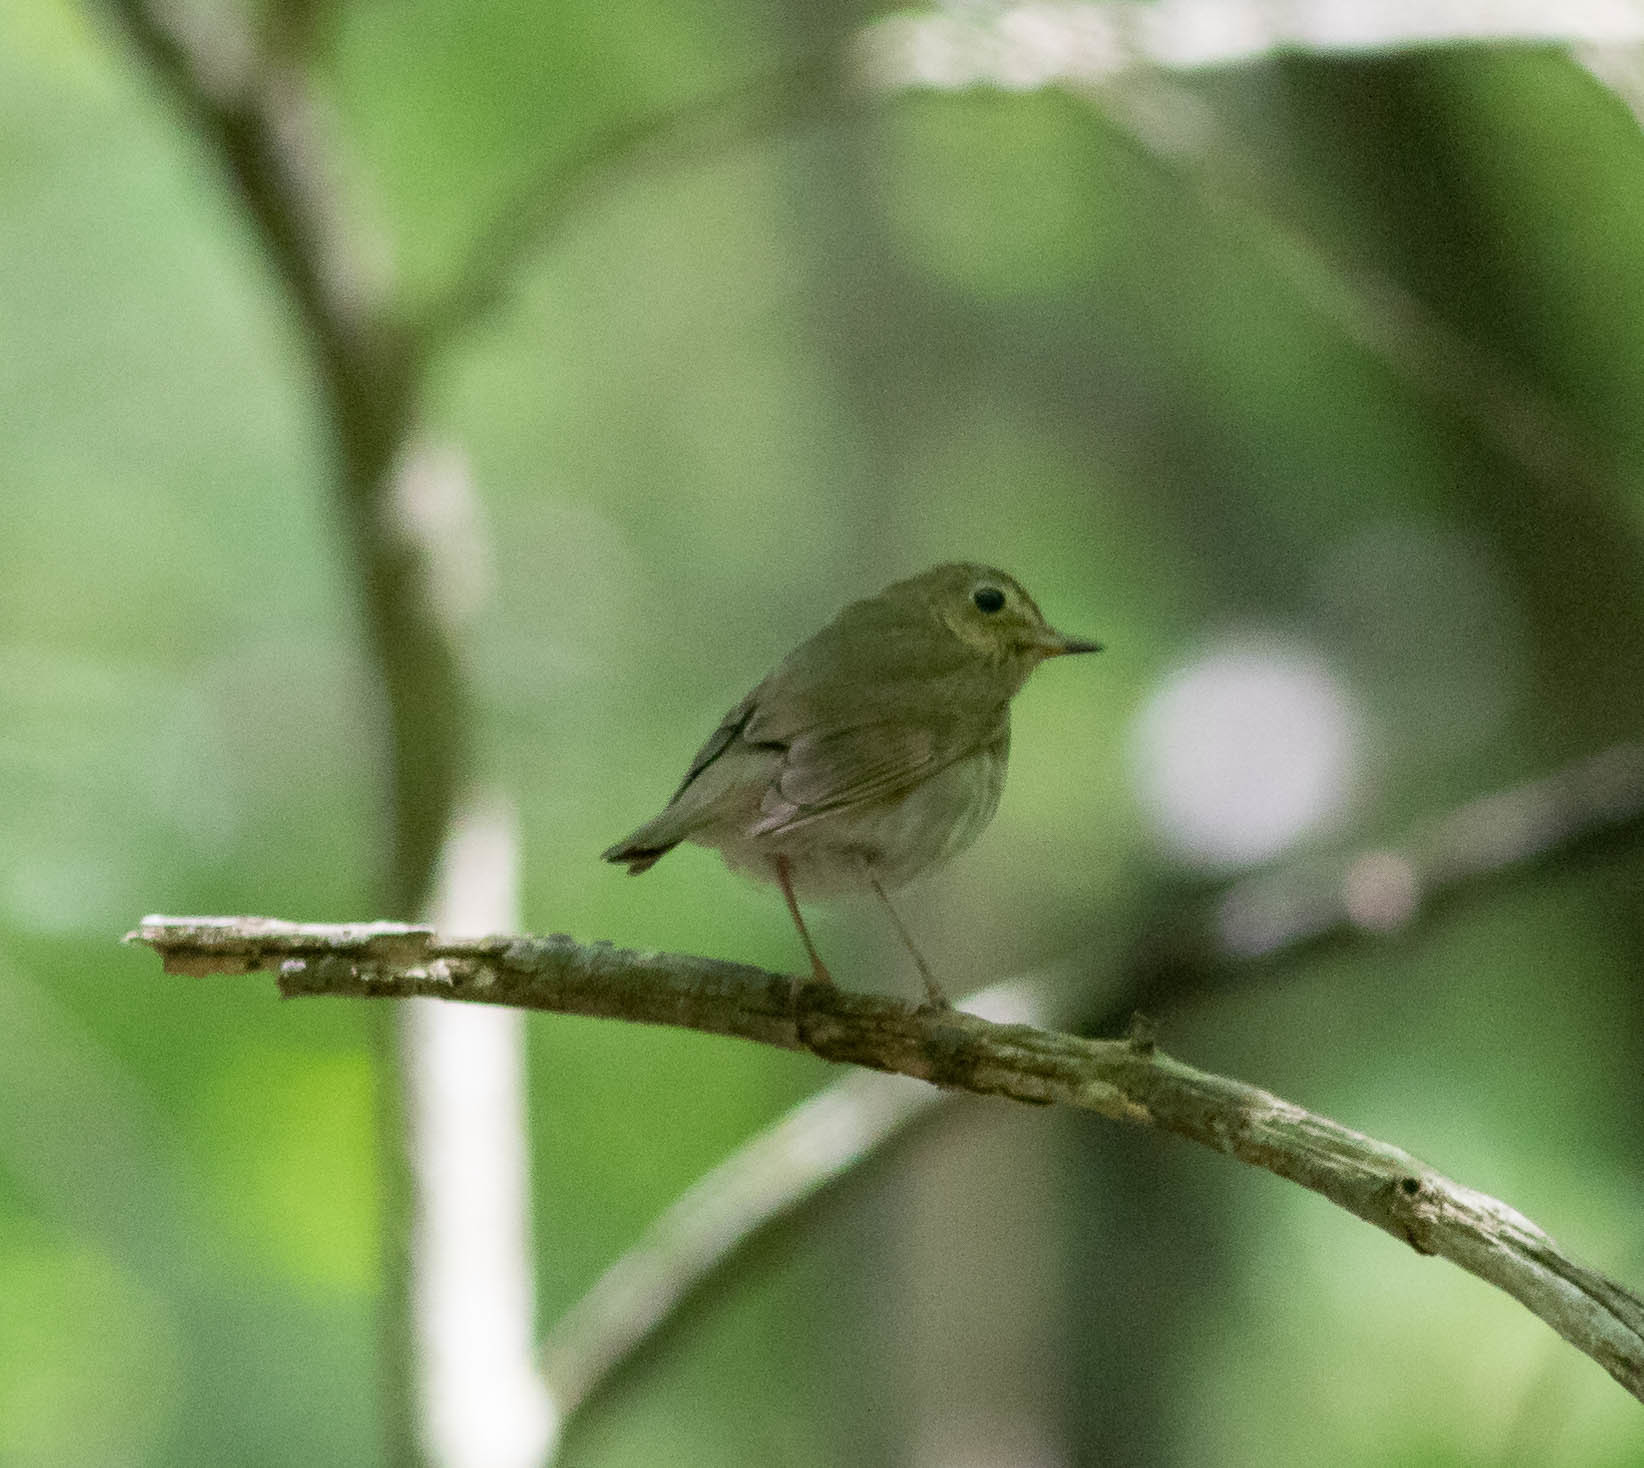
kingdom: Animalia
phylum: Chordata
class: Aves
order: Passeriformes
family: Turdidae
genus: Catharus
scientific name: Catharus ustulatus
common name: Swainson's thrush
